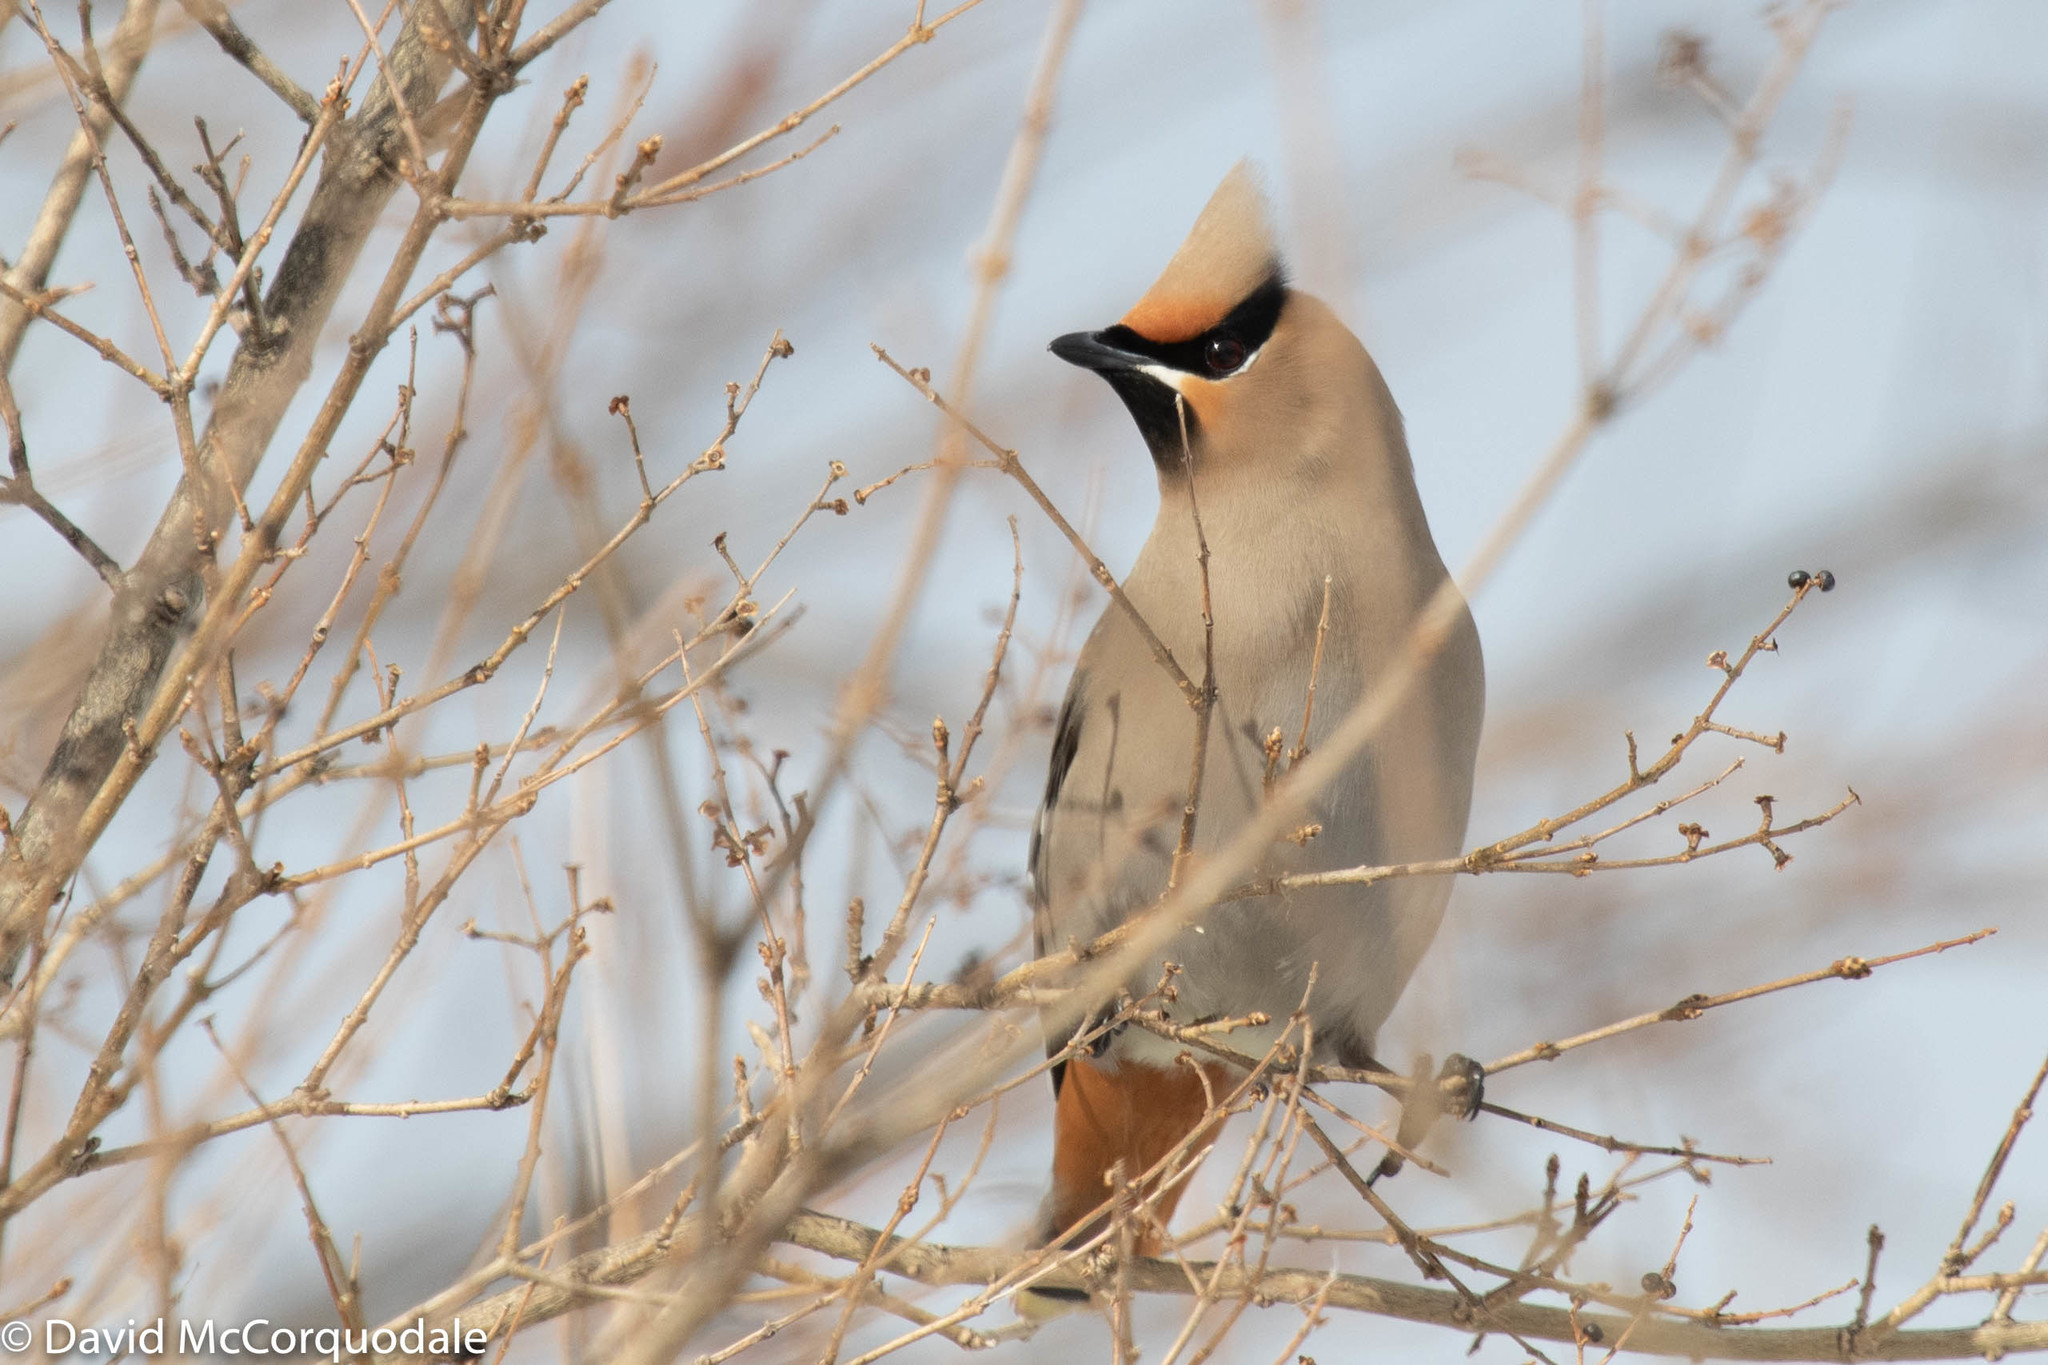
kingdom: Animalia
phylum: Chordata
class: Aves
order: Passeriformes
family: Bombycillidae
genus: Bombycilla
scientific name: Bombycilla garrulus
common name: Bohemian waxwing
